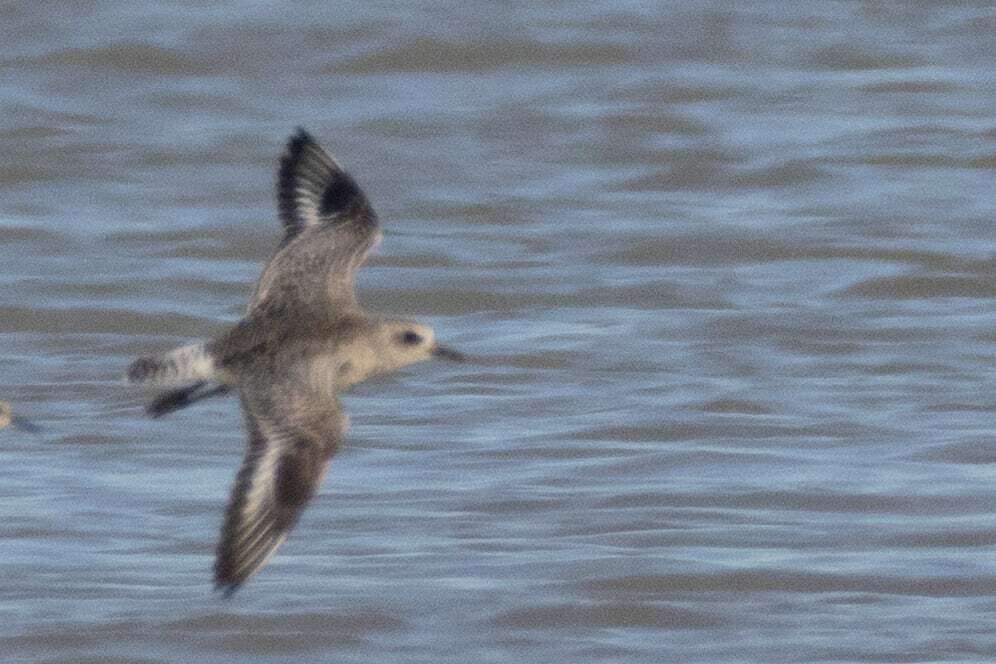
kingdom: Animalia
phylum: Chordata
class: Aves
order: Charadriiformes
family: Charadriidae
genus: Pluvialis
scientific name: Pluvialis squatarola
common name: Grey plover
